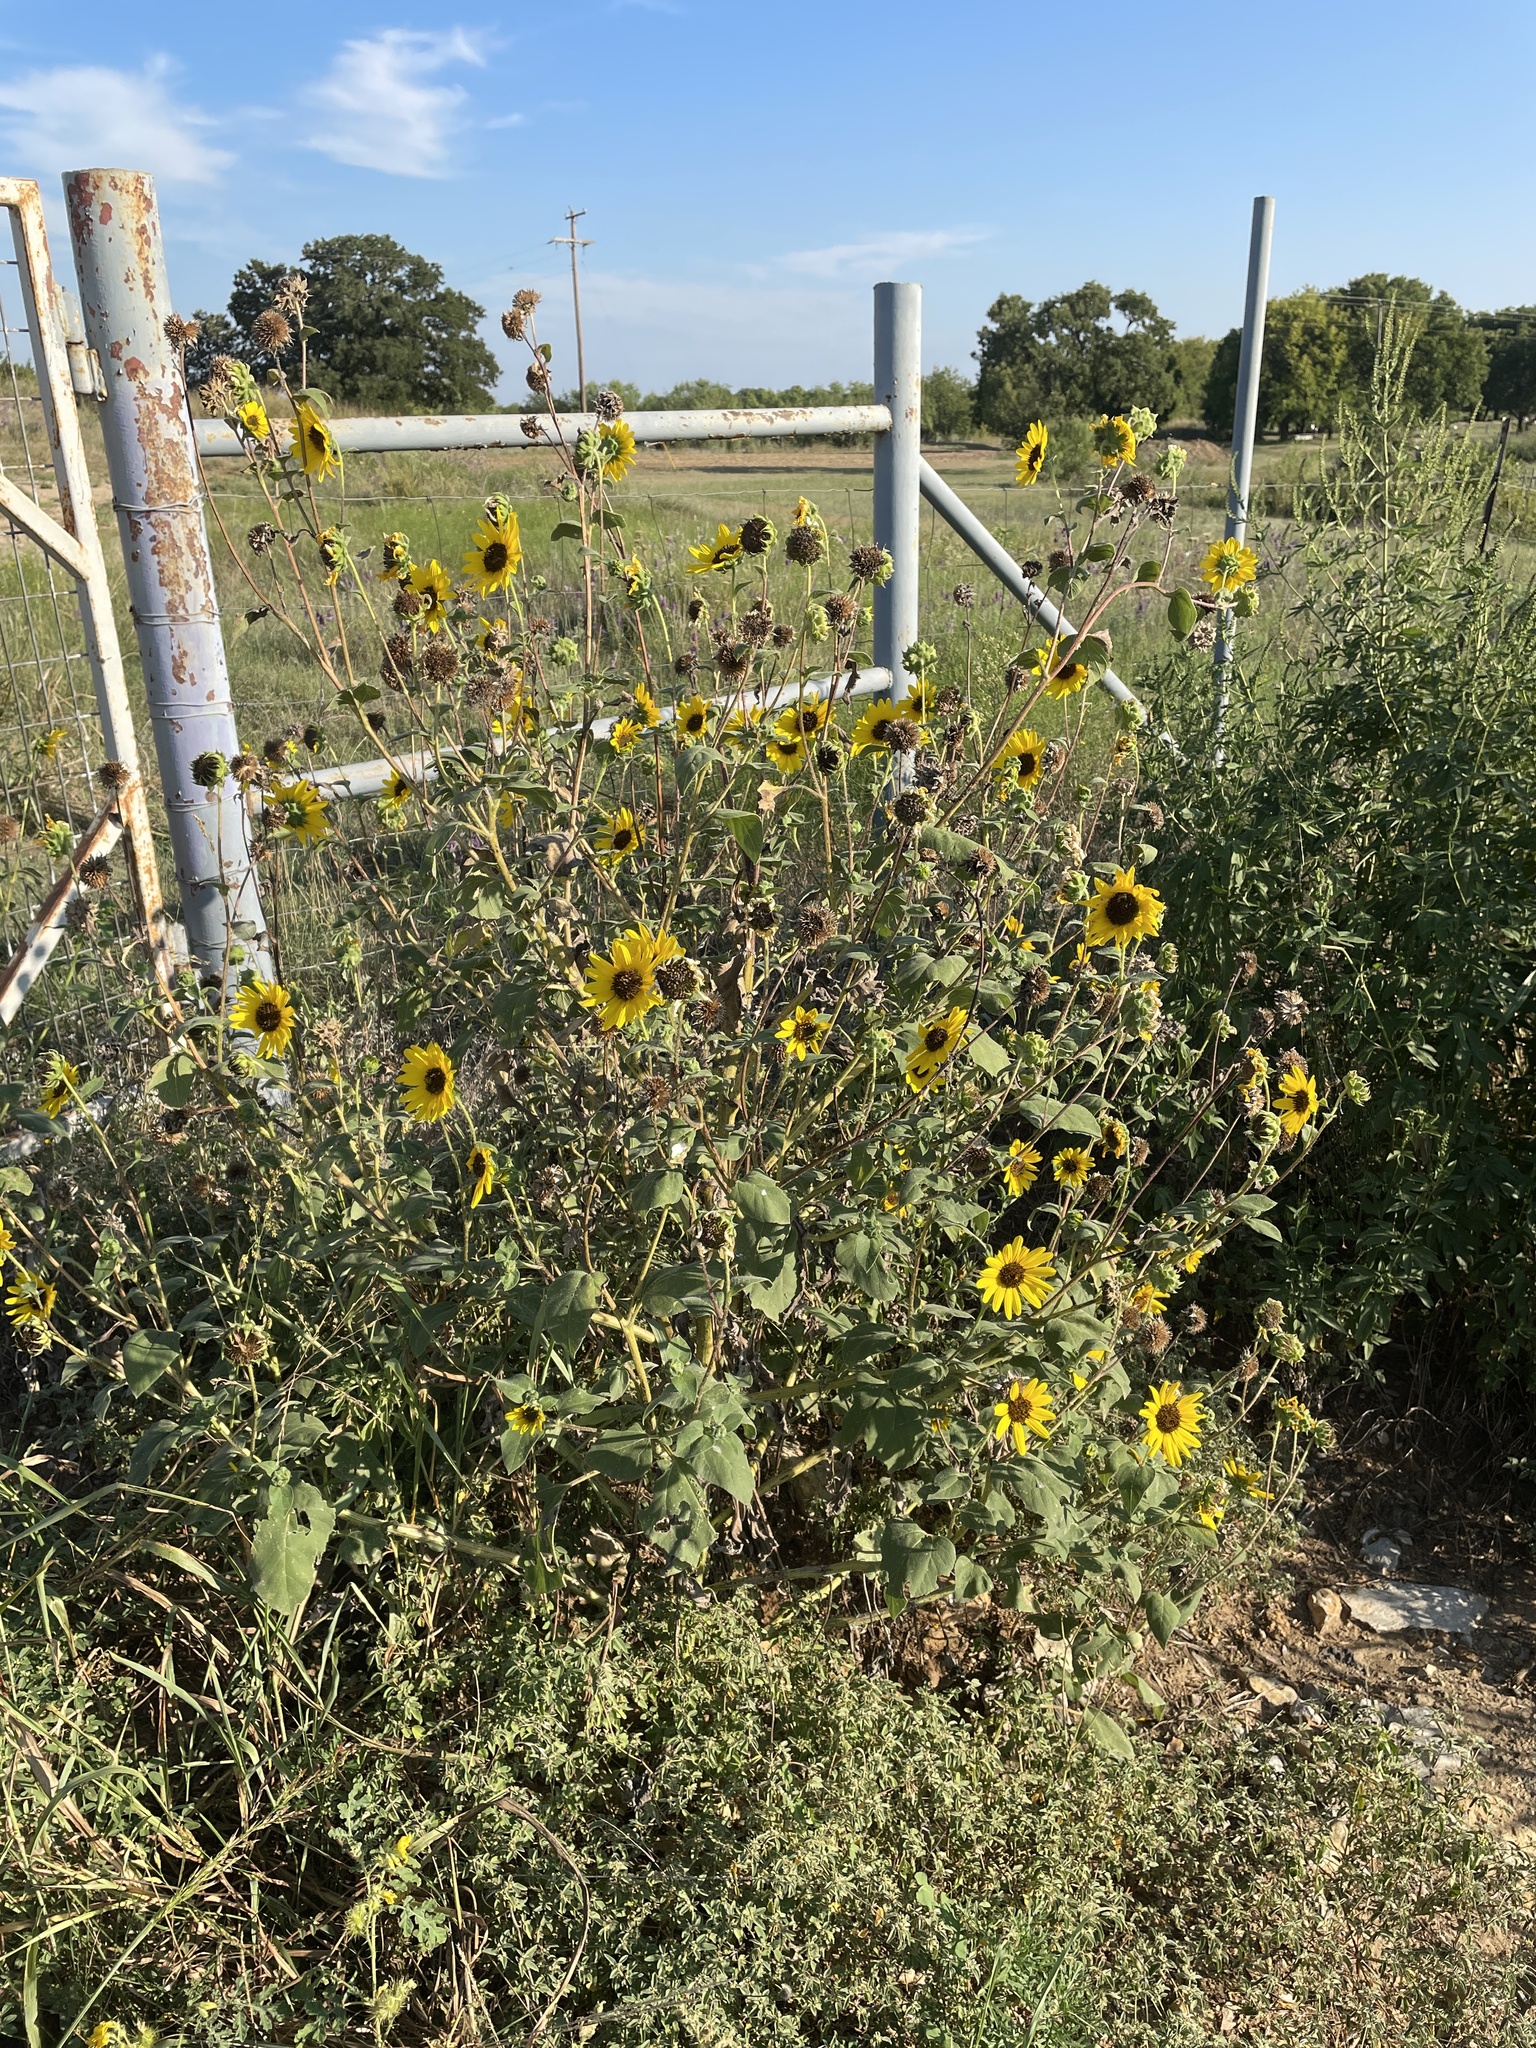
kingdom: Plantae
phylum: Tracheophyta
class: Magnoliopsida
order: Asterales
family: Asteraceae
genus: Helianthus
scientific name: Helianthus annuus
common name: Sunflower
